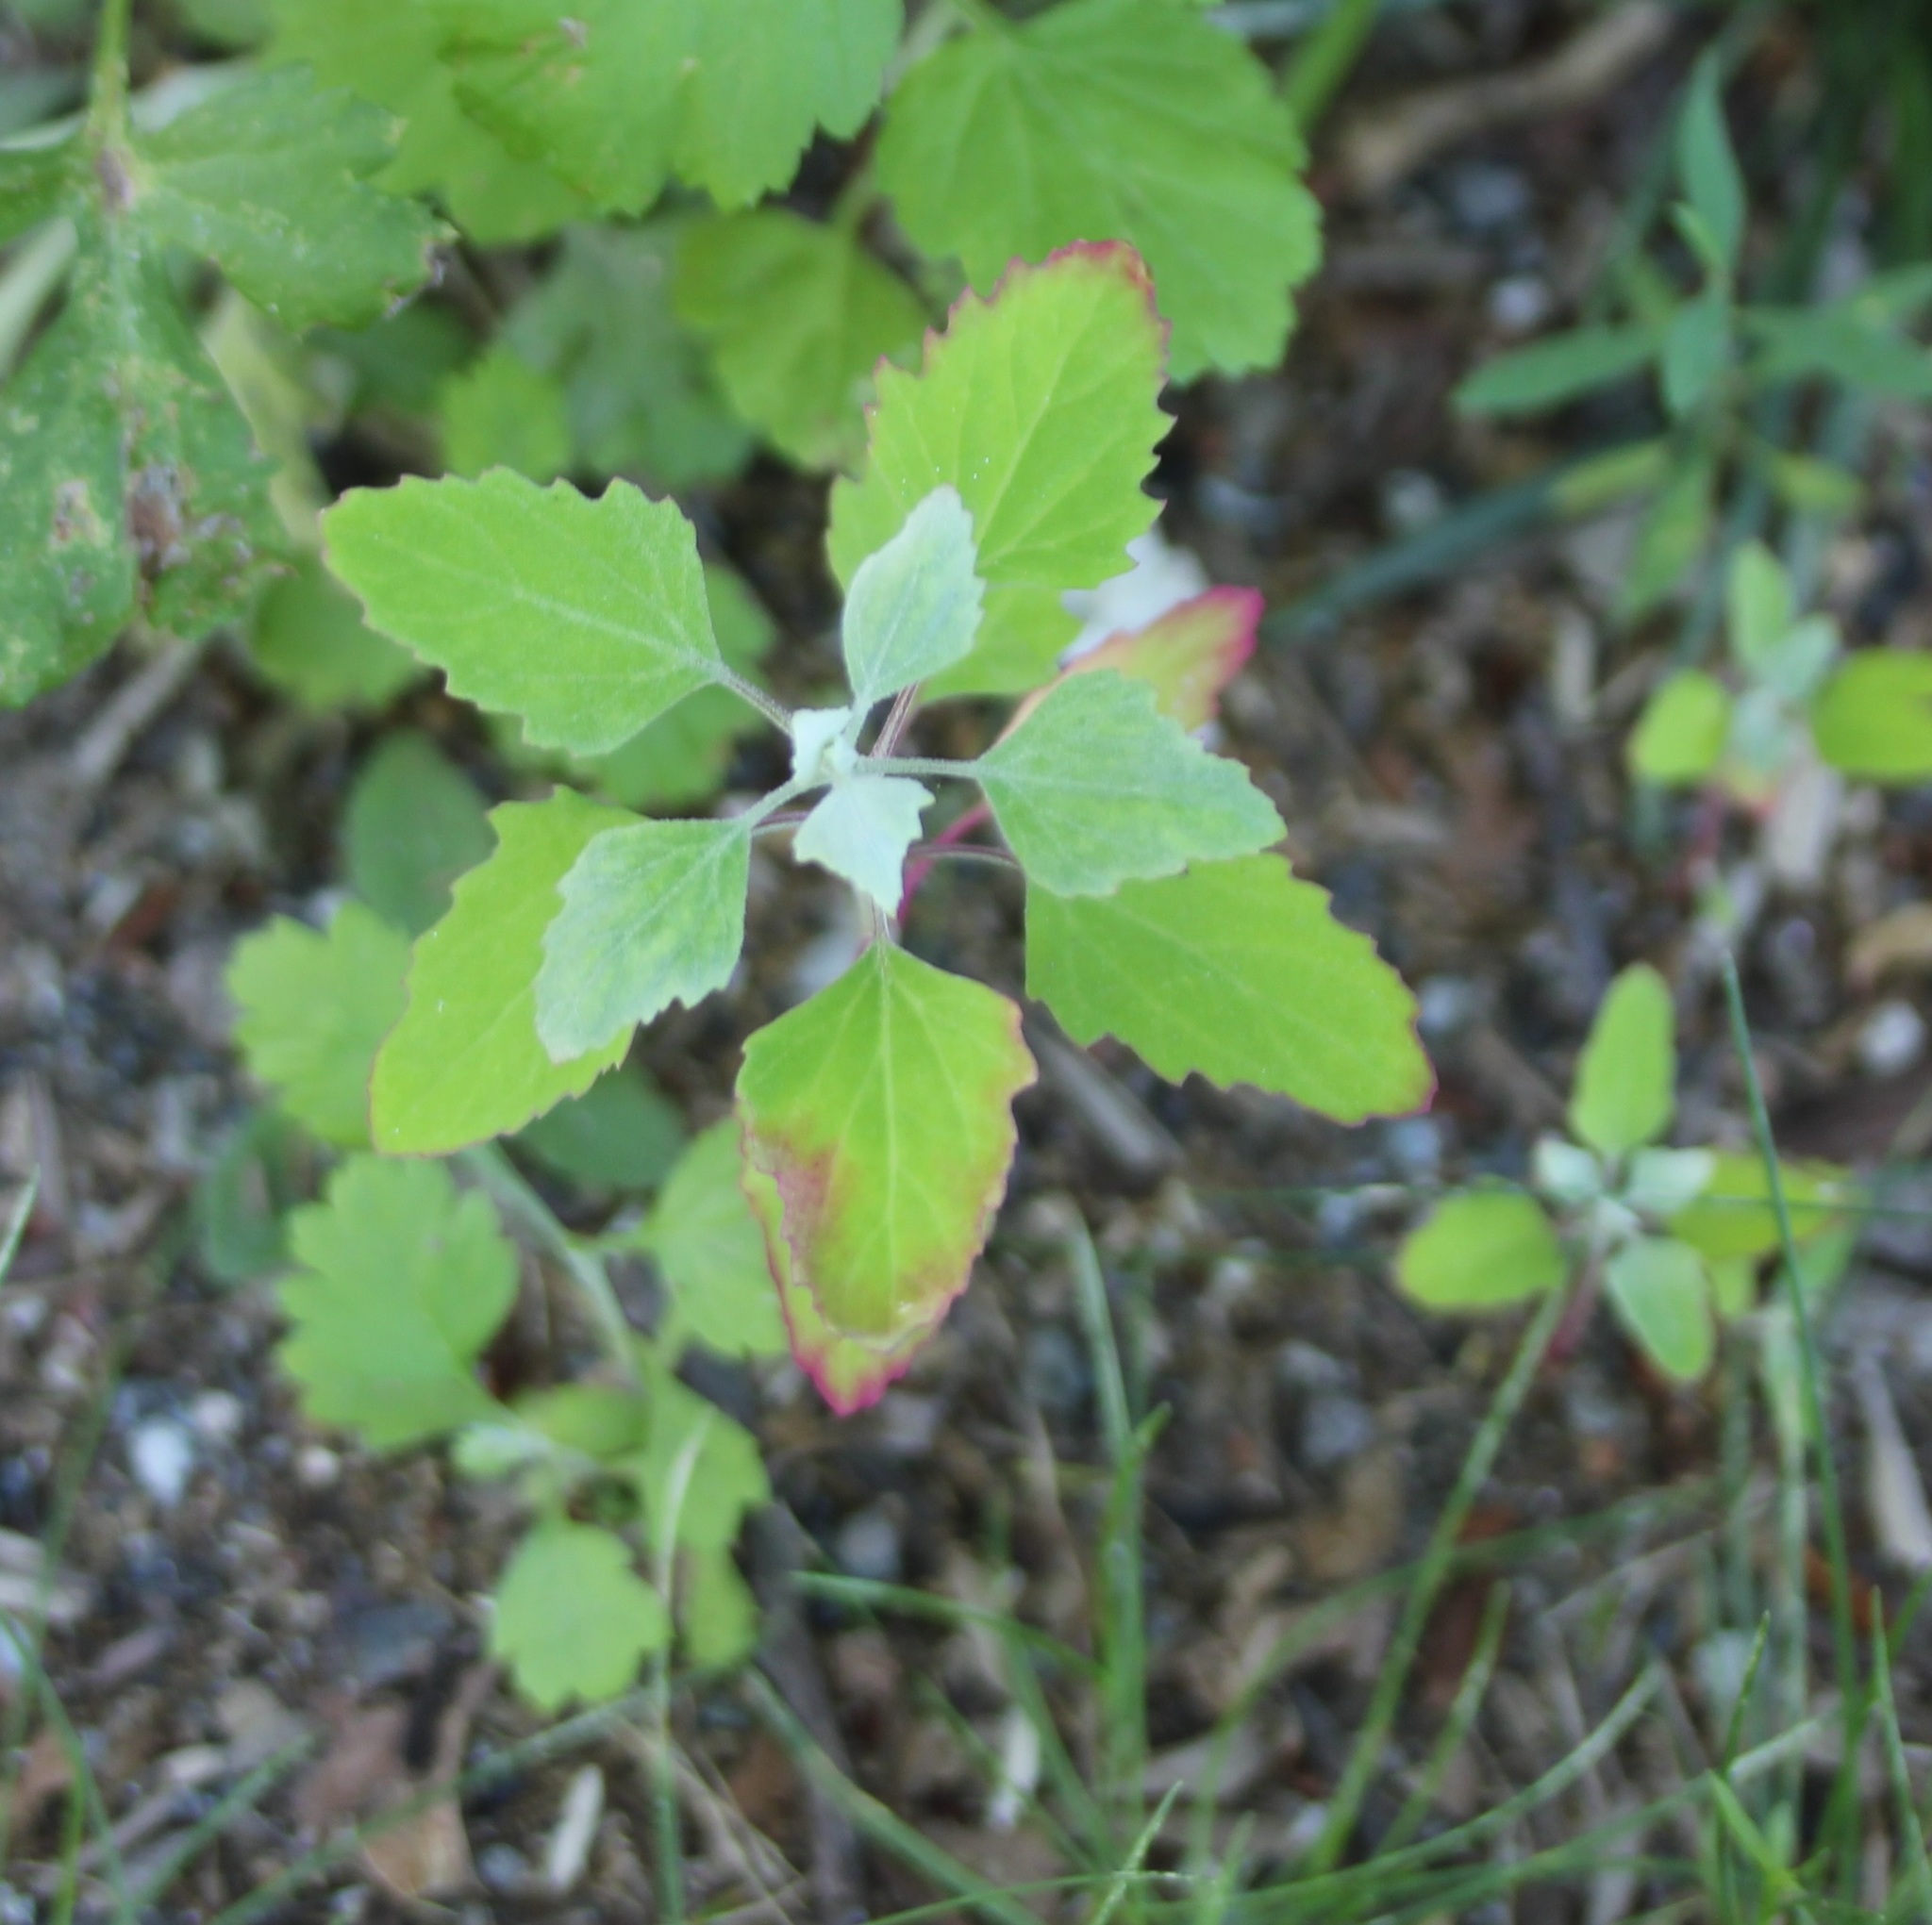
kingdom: Plantae
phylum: Tracheophyta
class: Magnoliopsida
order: Caryophyllales
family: Amaranthaceae
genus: Chenopodium
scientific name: Chenopodium album
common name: Fat-hen
